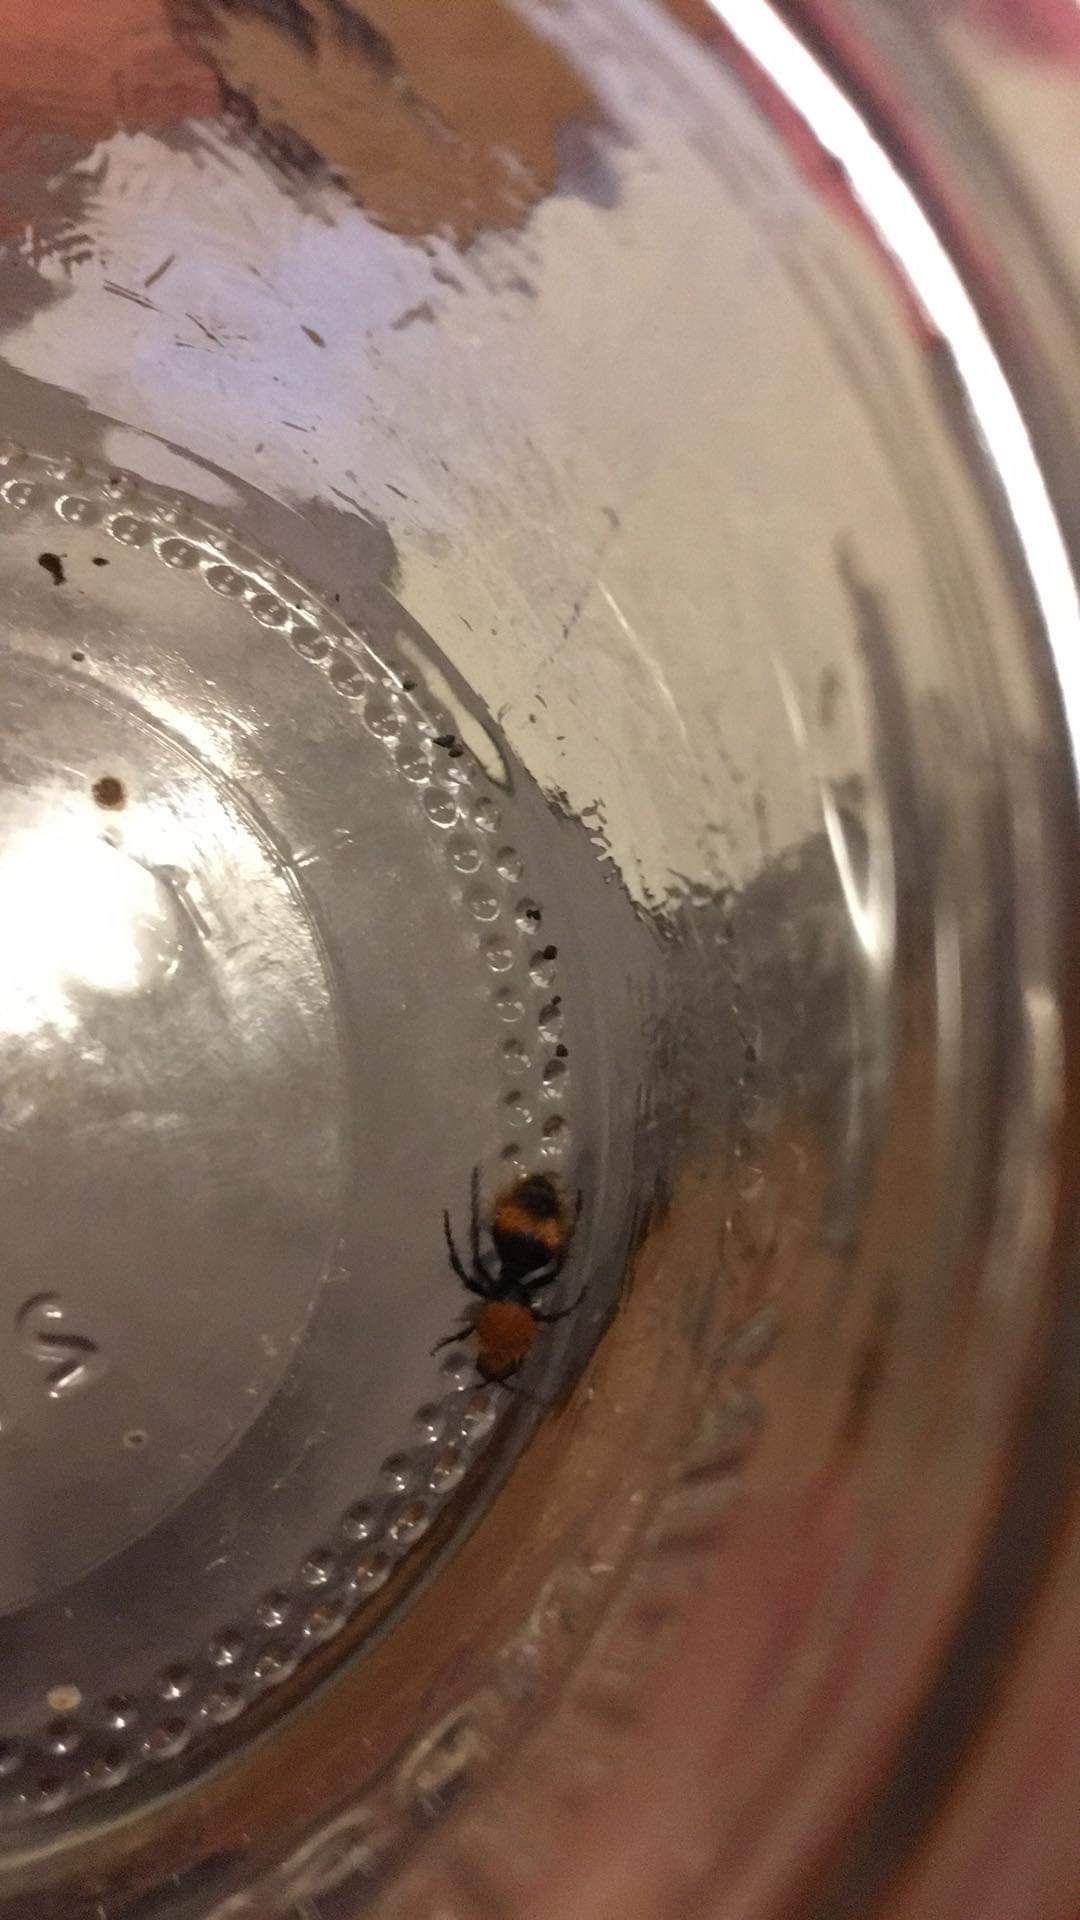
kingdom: Animalia
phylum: Arthropoda
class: Insecta
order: Hymenoptera
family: Mutillidae
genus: Dasymutilla
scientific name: Dasymutilla
